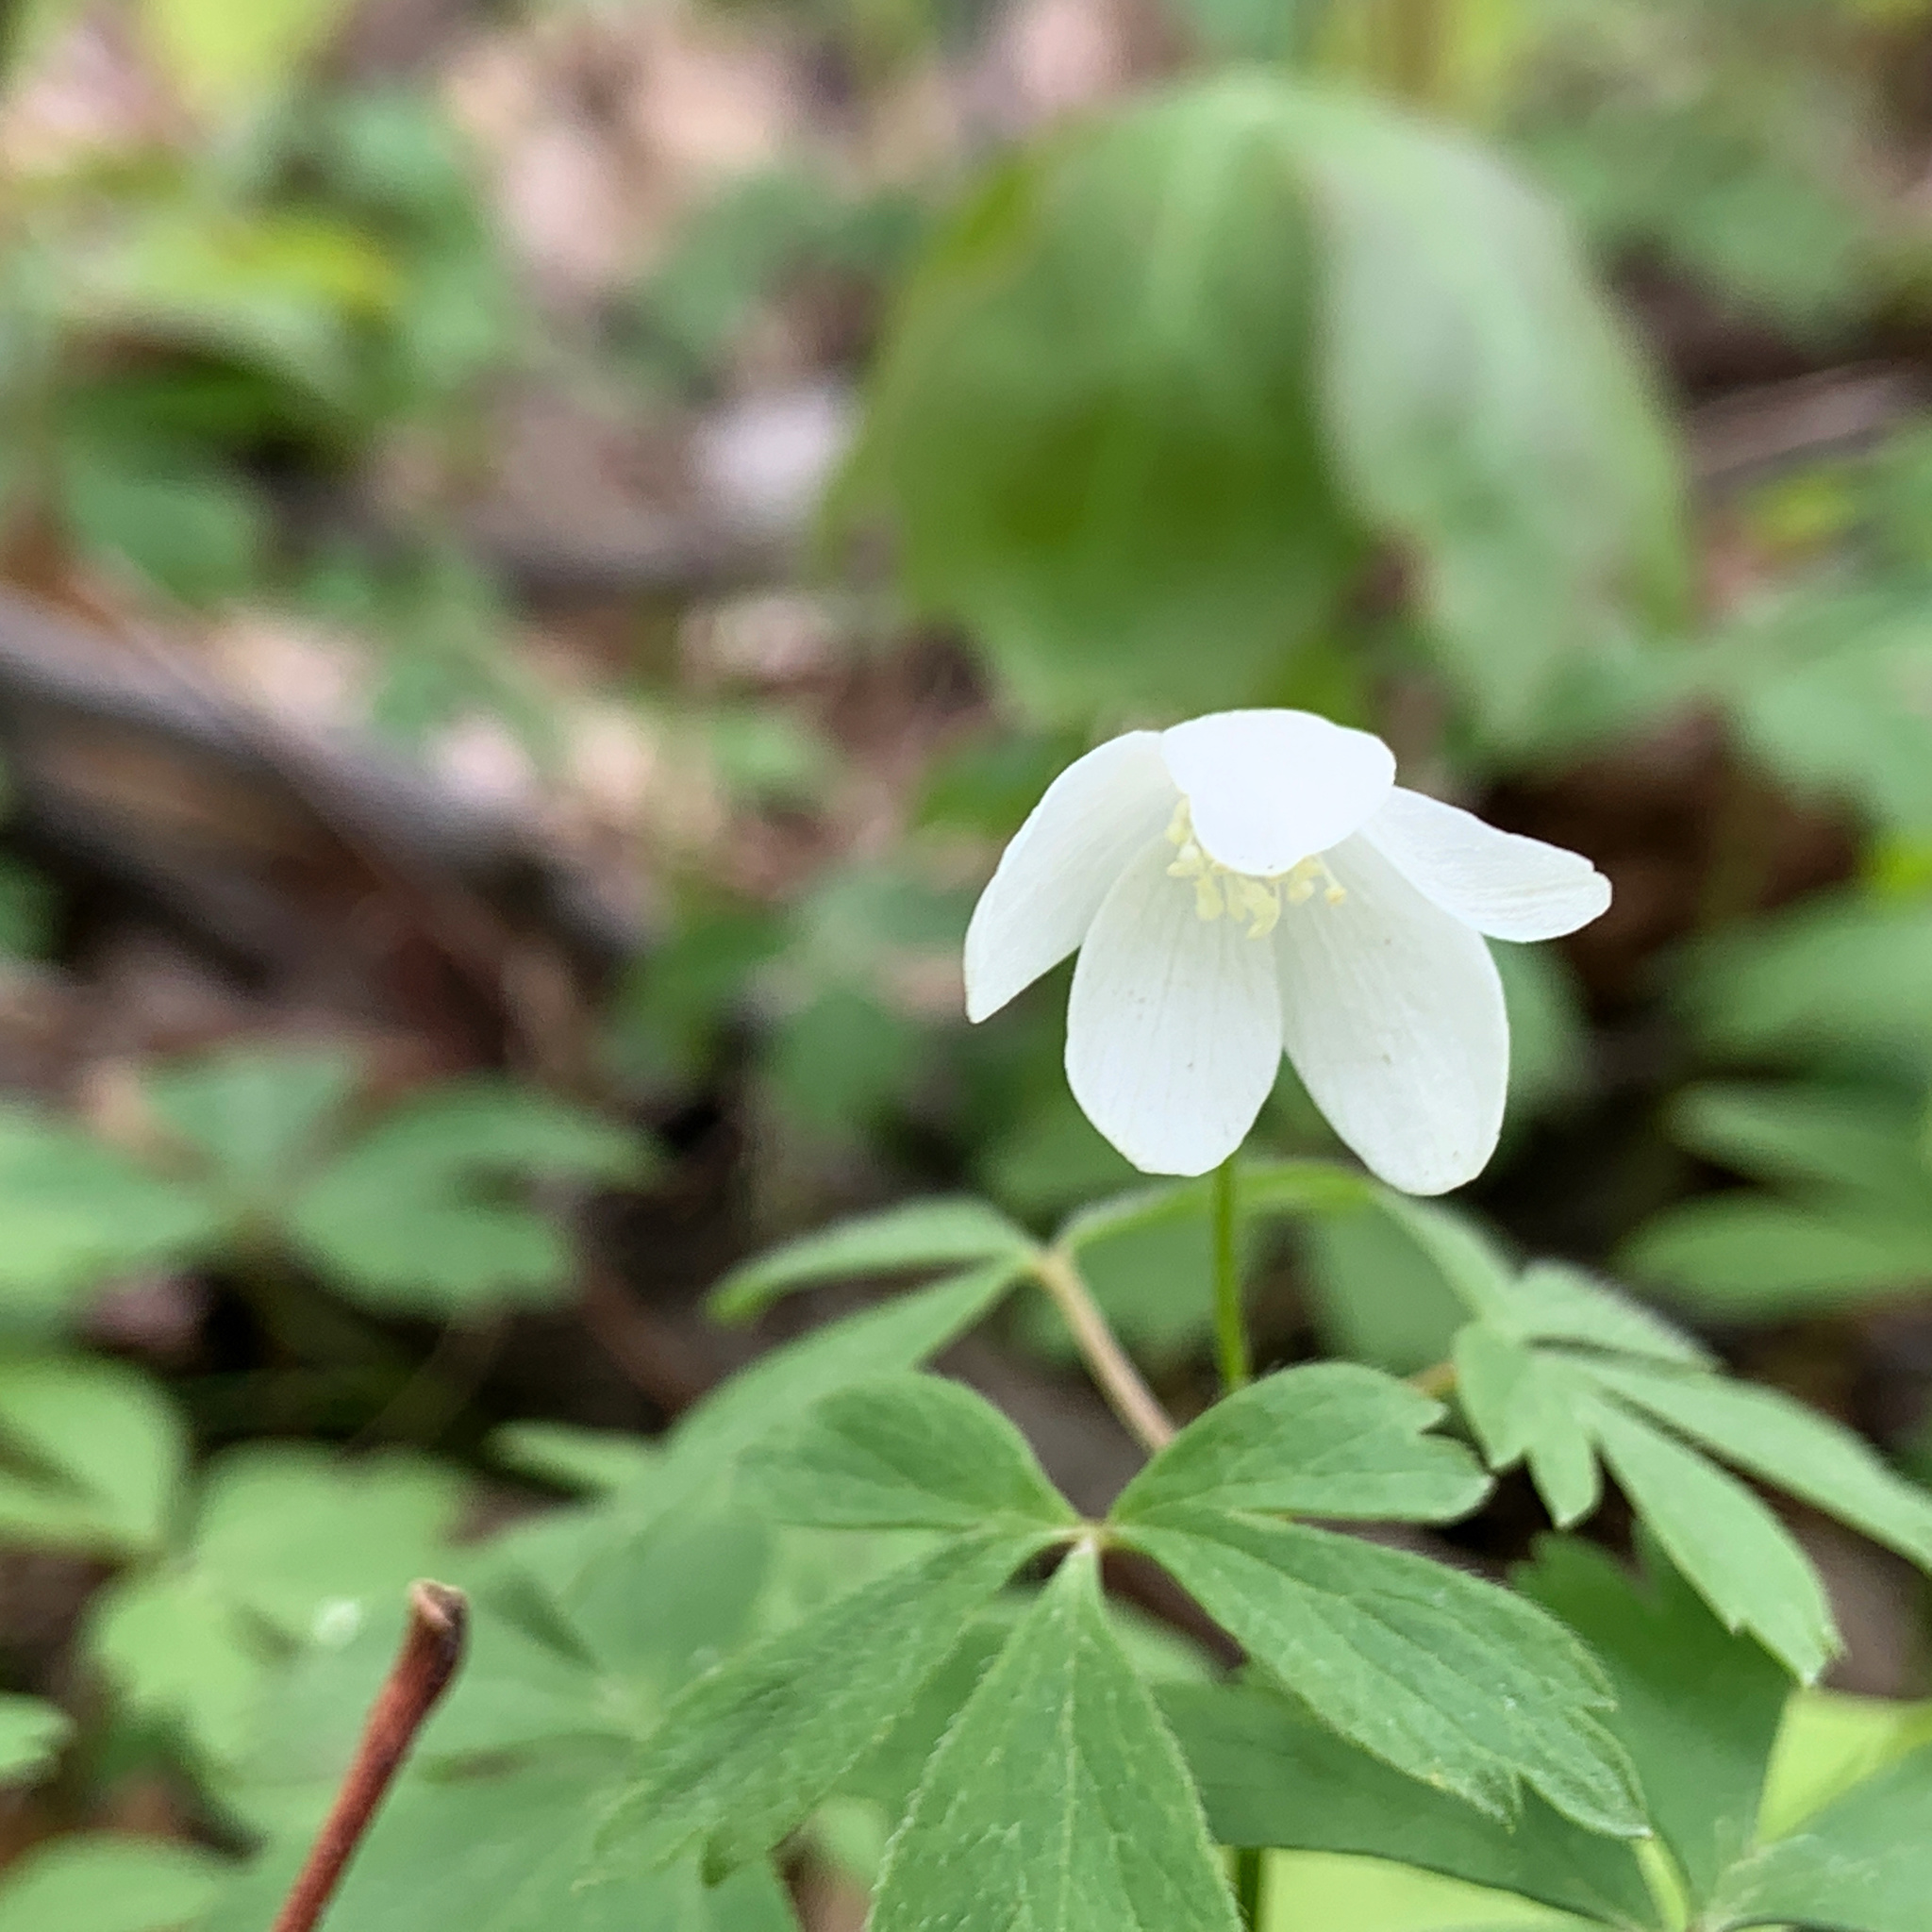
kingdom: Plantae
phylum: Tracheophyta
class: Magnoliopsida
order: Ranunculales
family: Ranunculaceae
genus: Anemone
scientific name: Anemone quinquefolia
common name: Wood anemone
